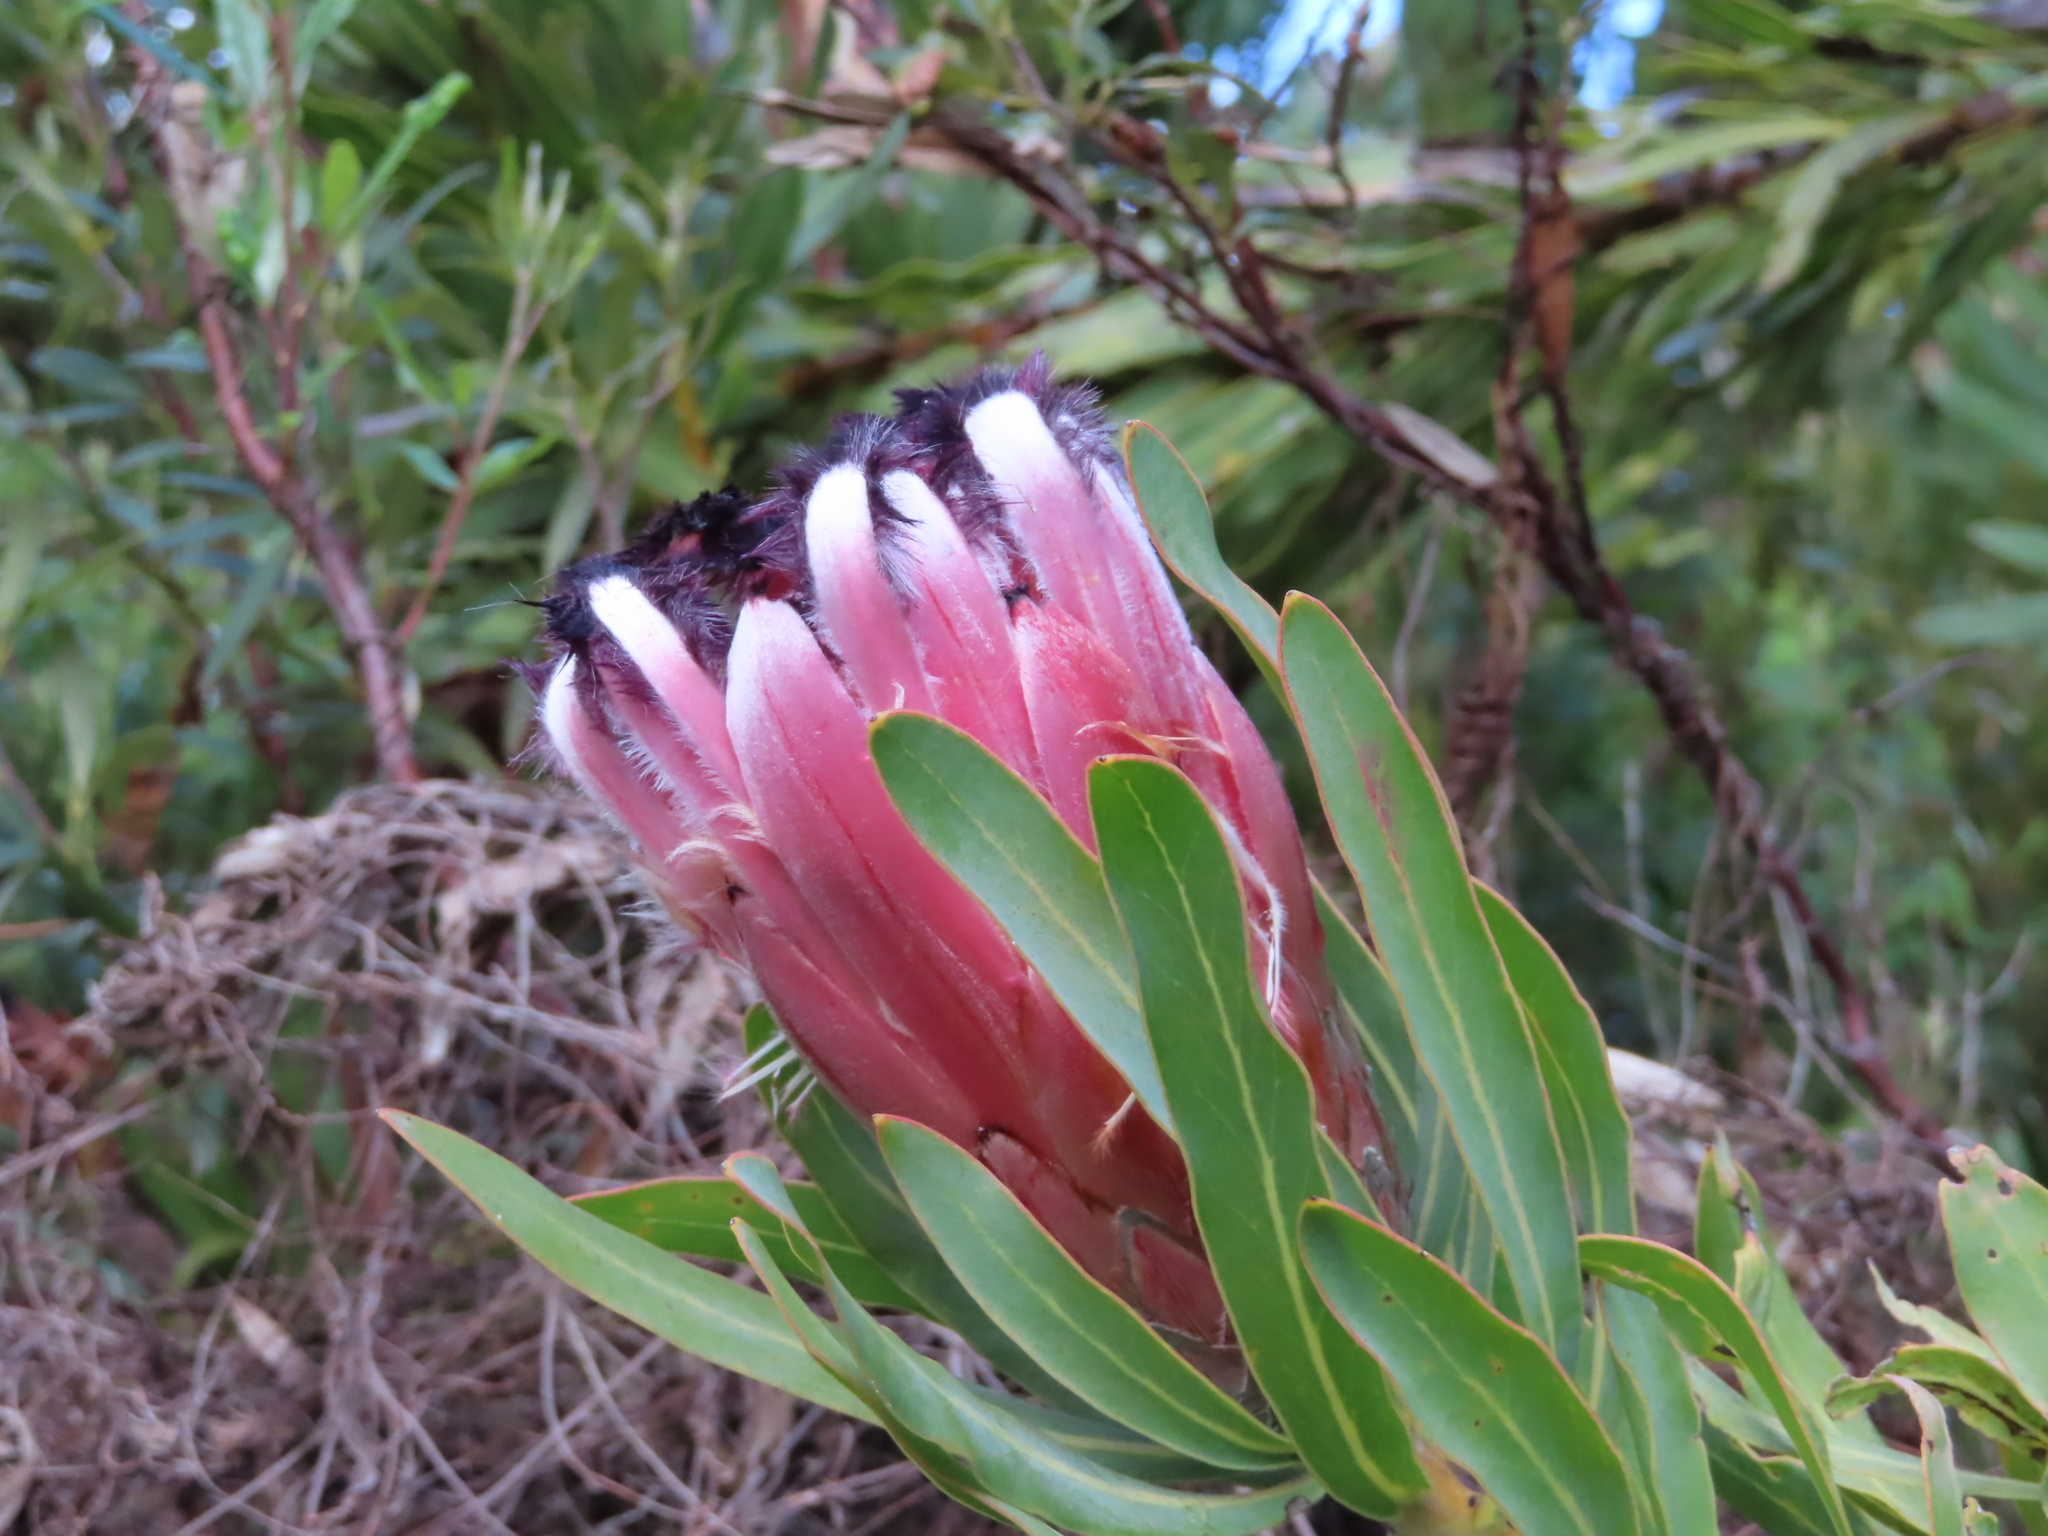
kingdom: Plantae
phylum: Tracheophyta
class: Magnoliopsida
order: Proteales
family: Proteaceae
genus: Protea
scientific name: Protea neriifolia
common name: Blue sugarbush
